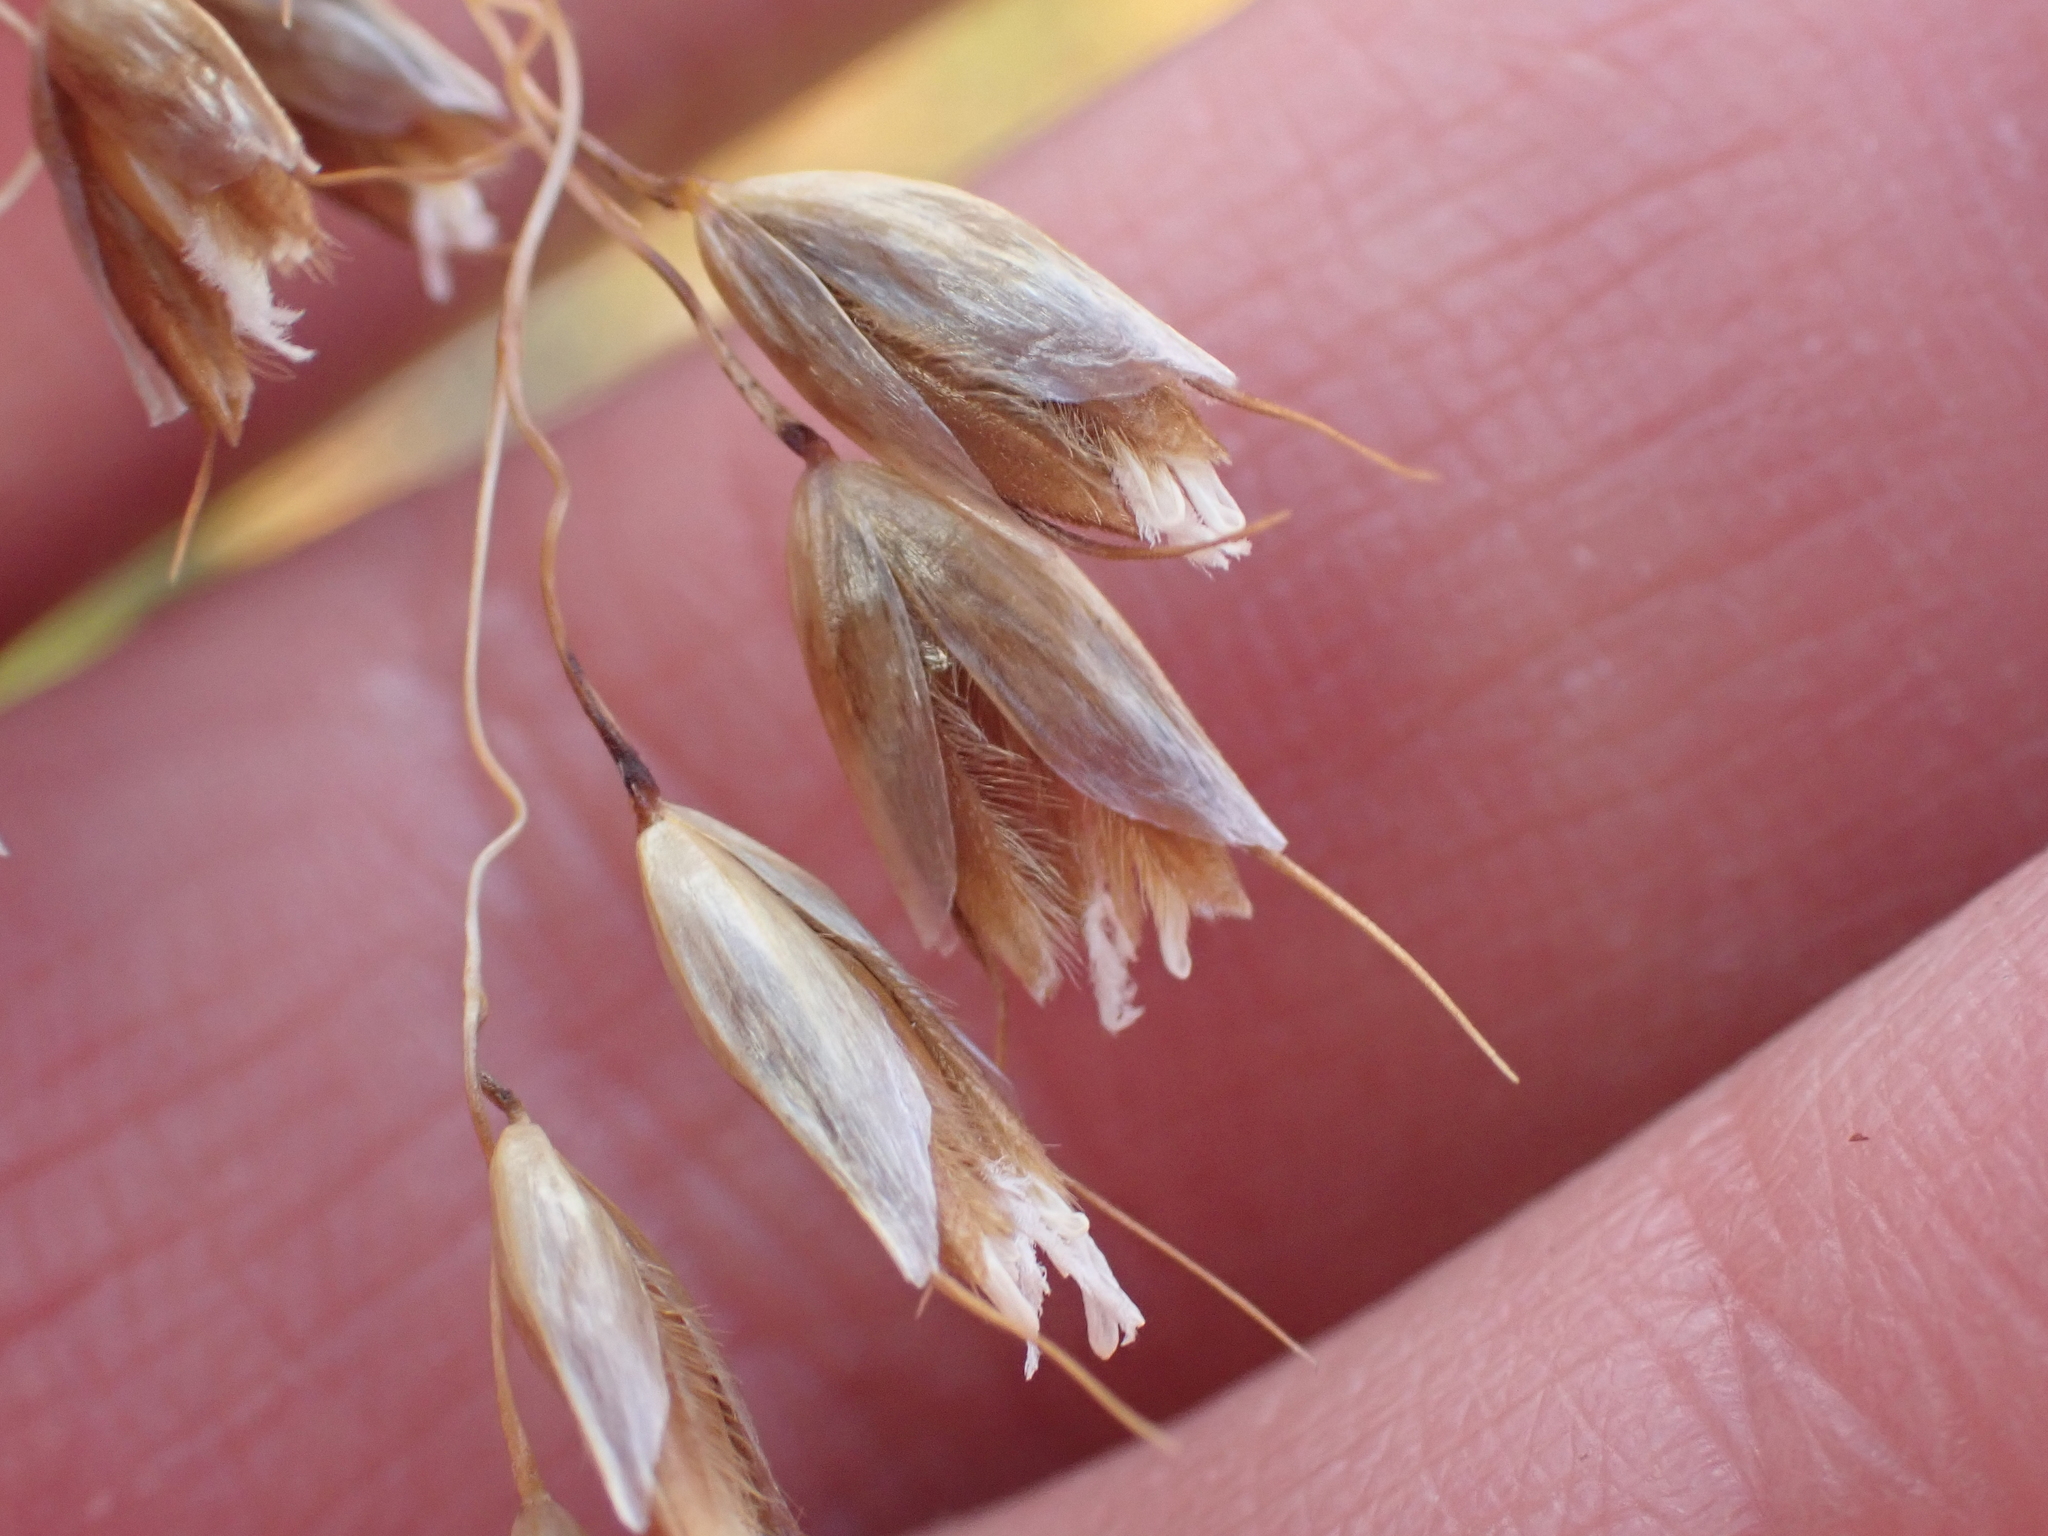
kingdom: Plantae
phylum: Tracheophyta
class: Liliopsida
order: Poales
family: Poaceae
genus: Anthoxanthum
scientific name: Anthoxanthum redolens
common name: Sweet holy grass
